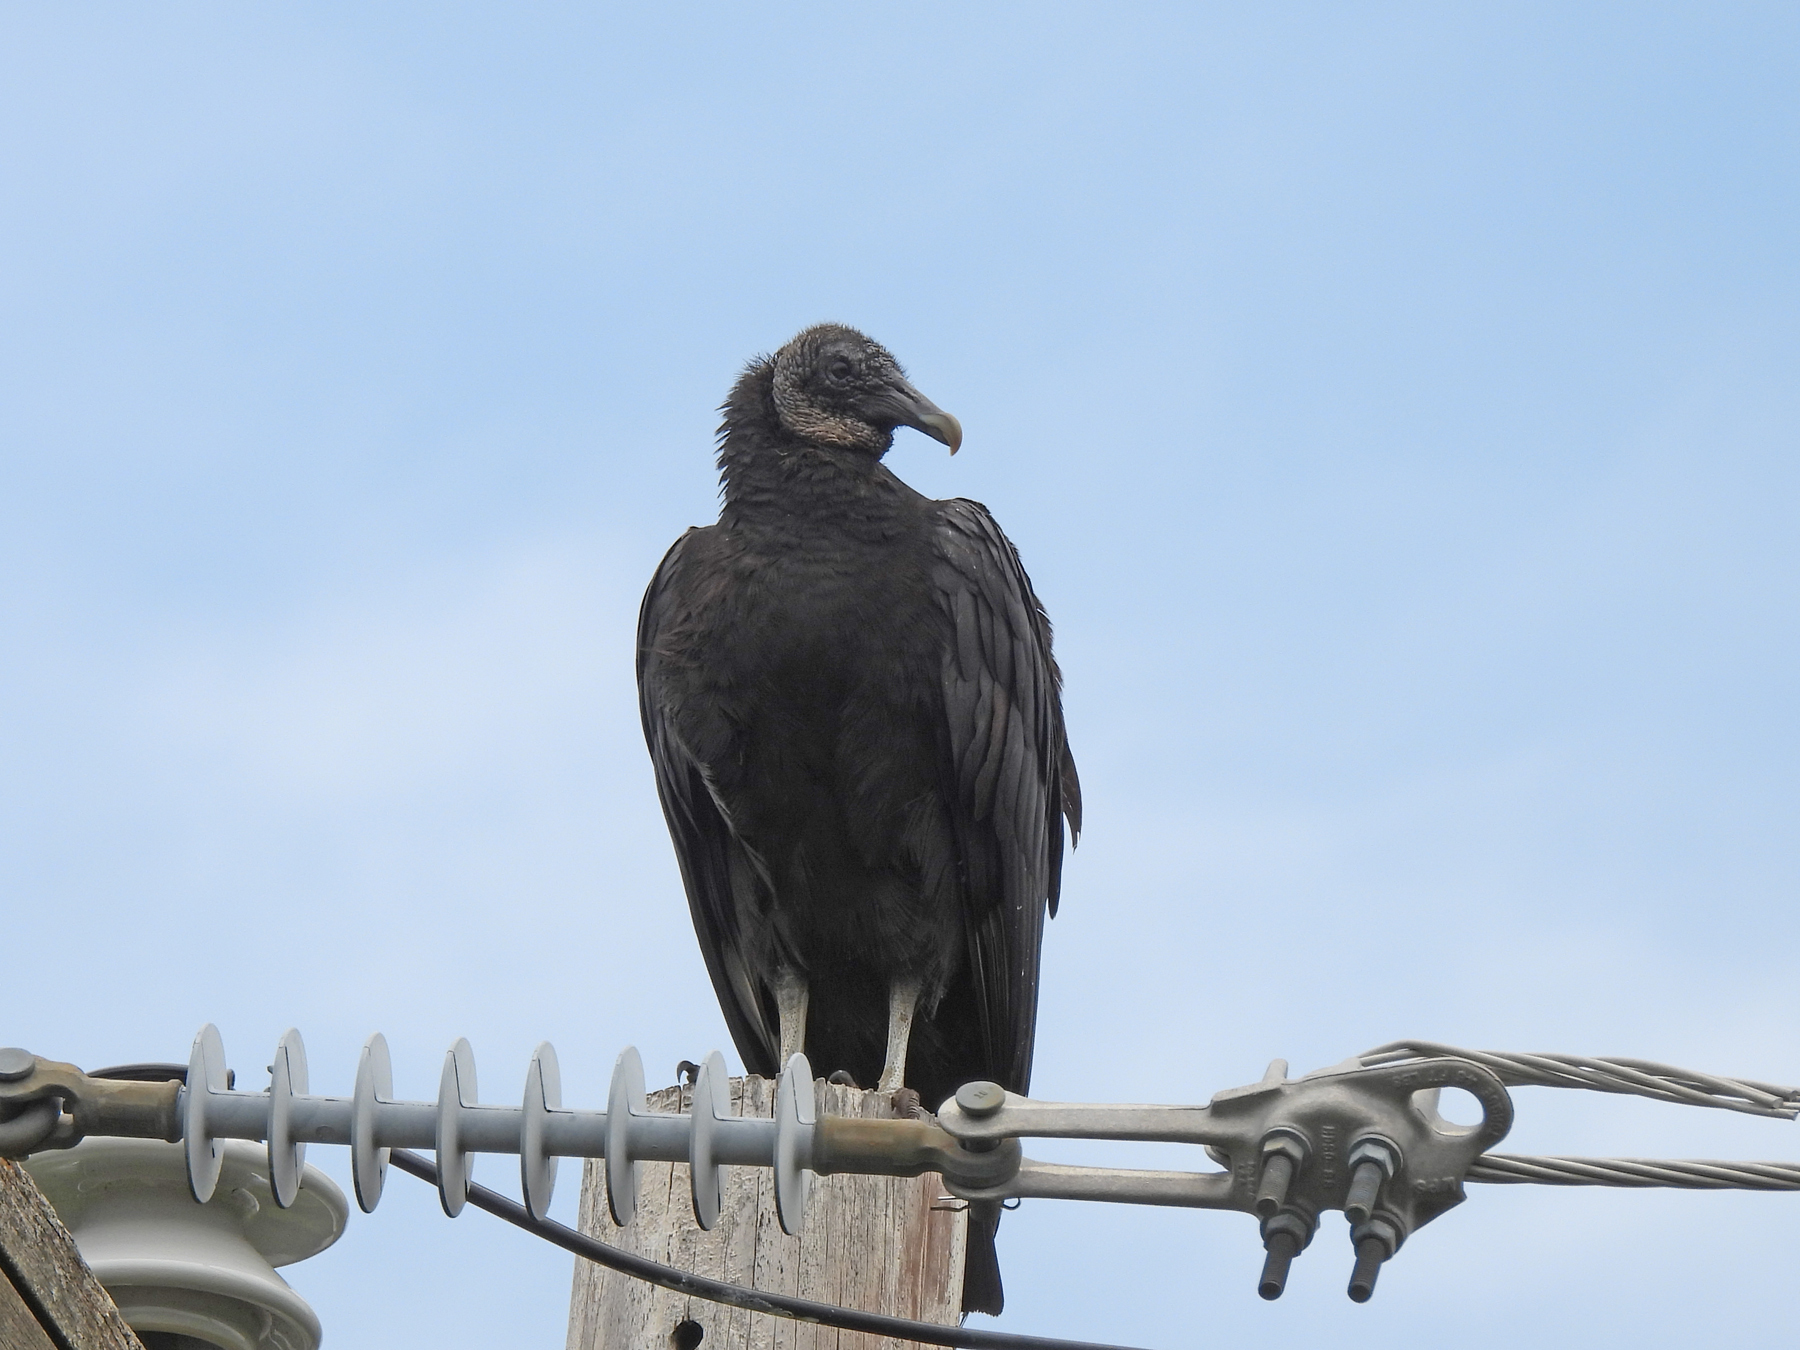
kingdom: Animalia
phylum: Chordata
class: Aves
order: Accipitriformes
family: Cathartidae
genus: Coragyps
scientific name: Coragyps atratus
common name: Black vulture
